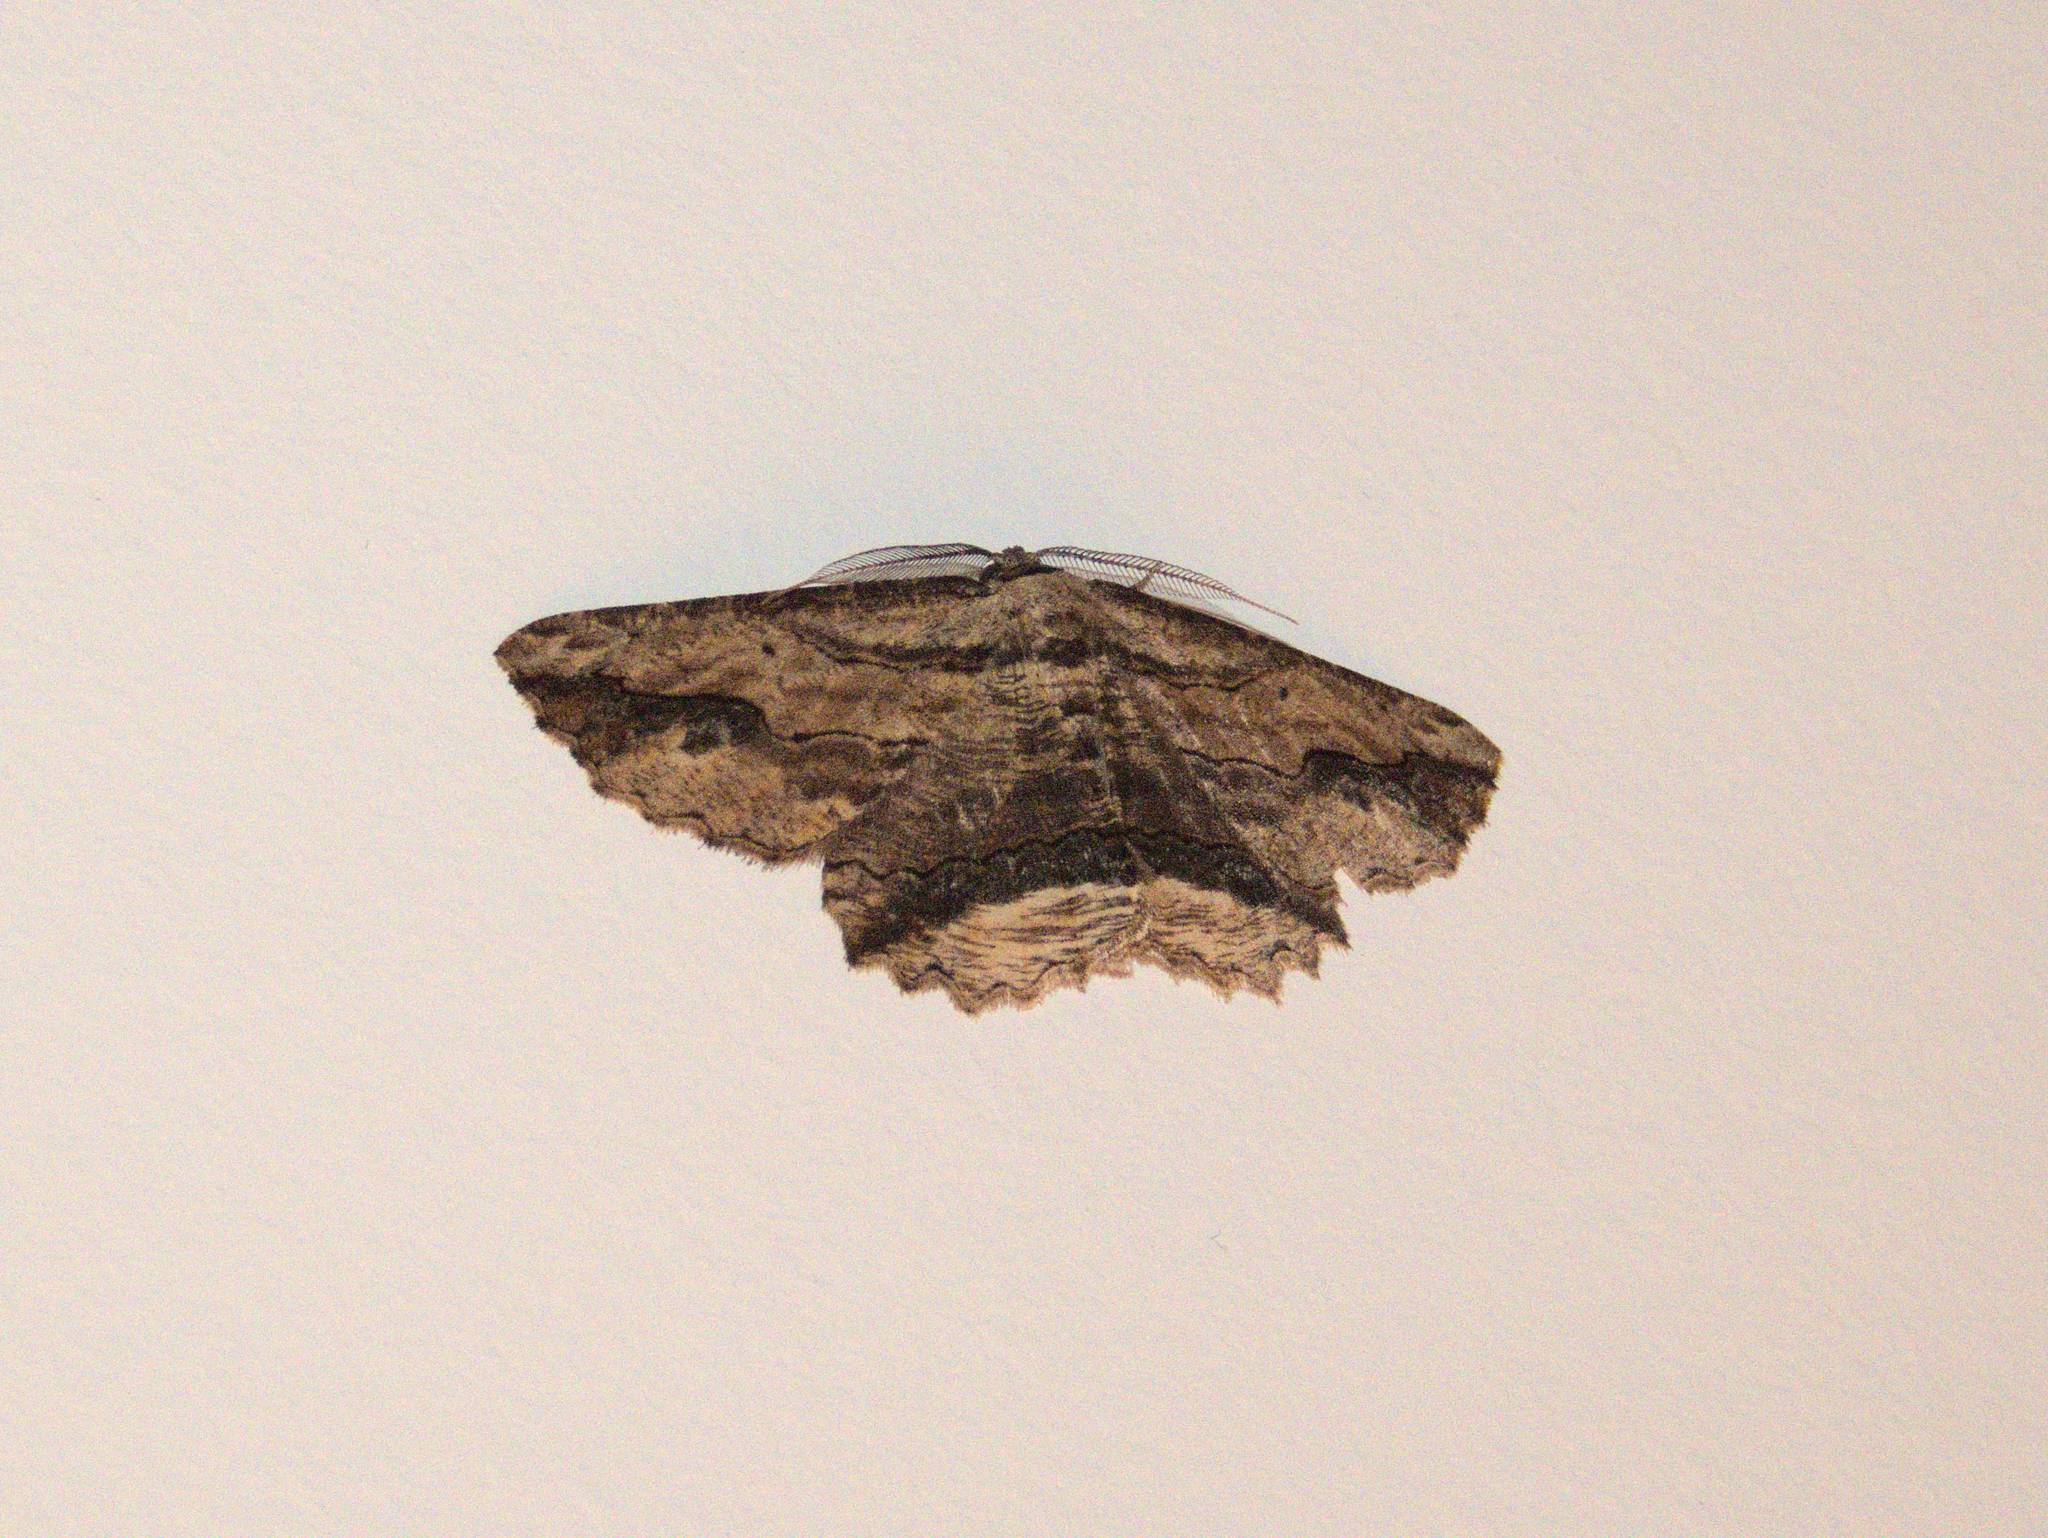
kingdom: Animalia
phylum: Arthropoda
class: Insecta
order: Lepidoptera
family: Geometridae
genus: Menophra
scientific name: Menophra abruptaria
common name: Waved umber
